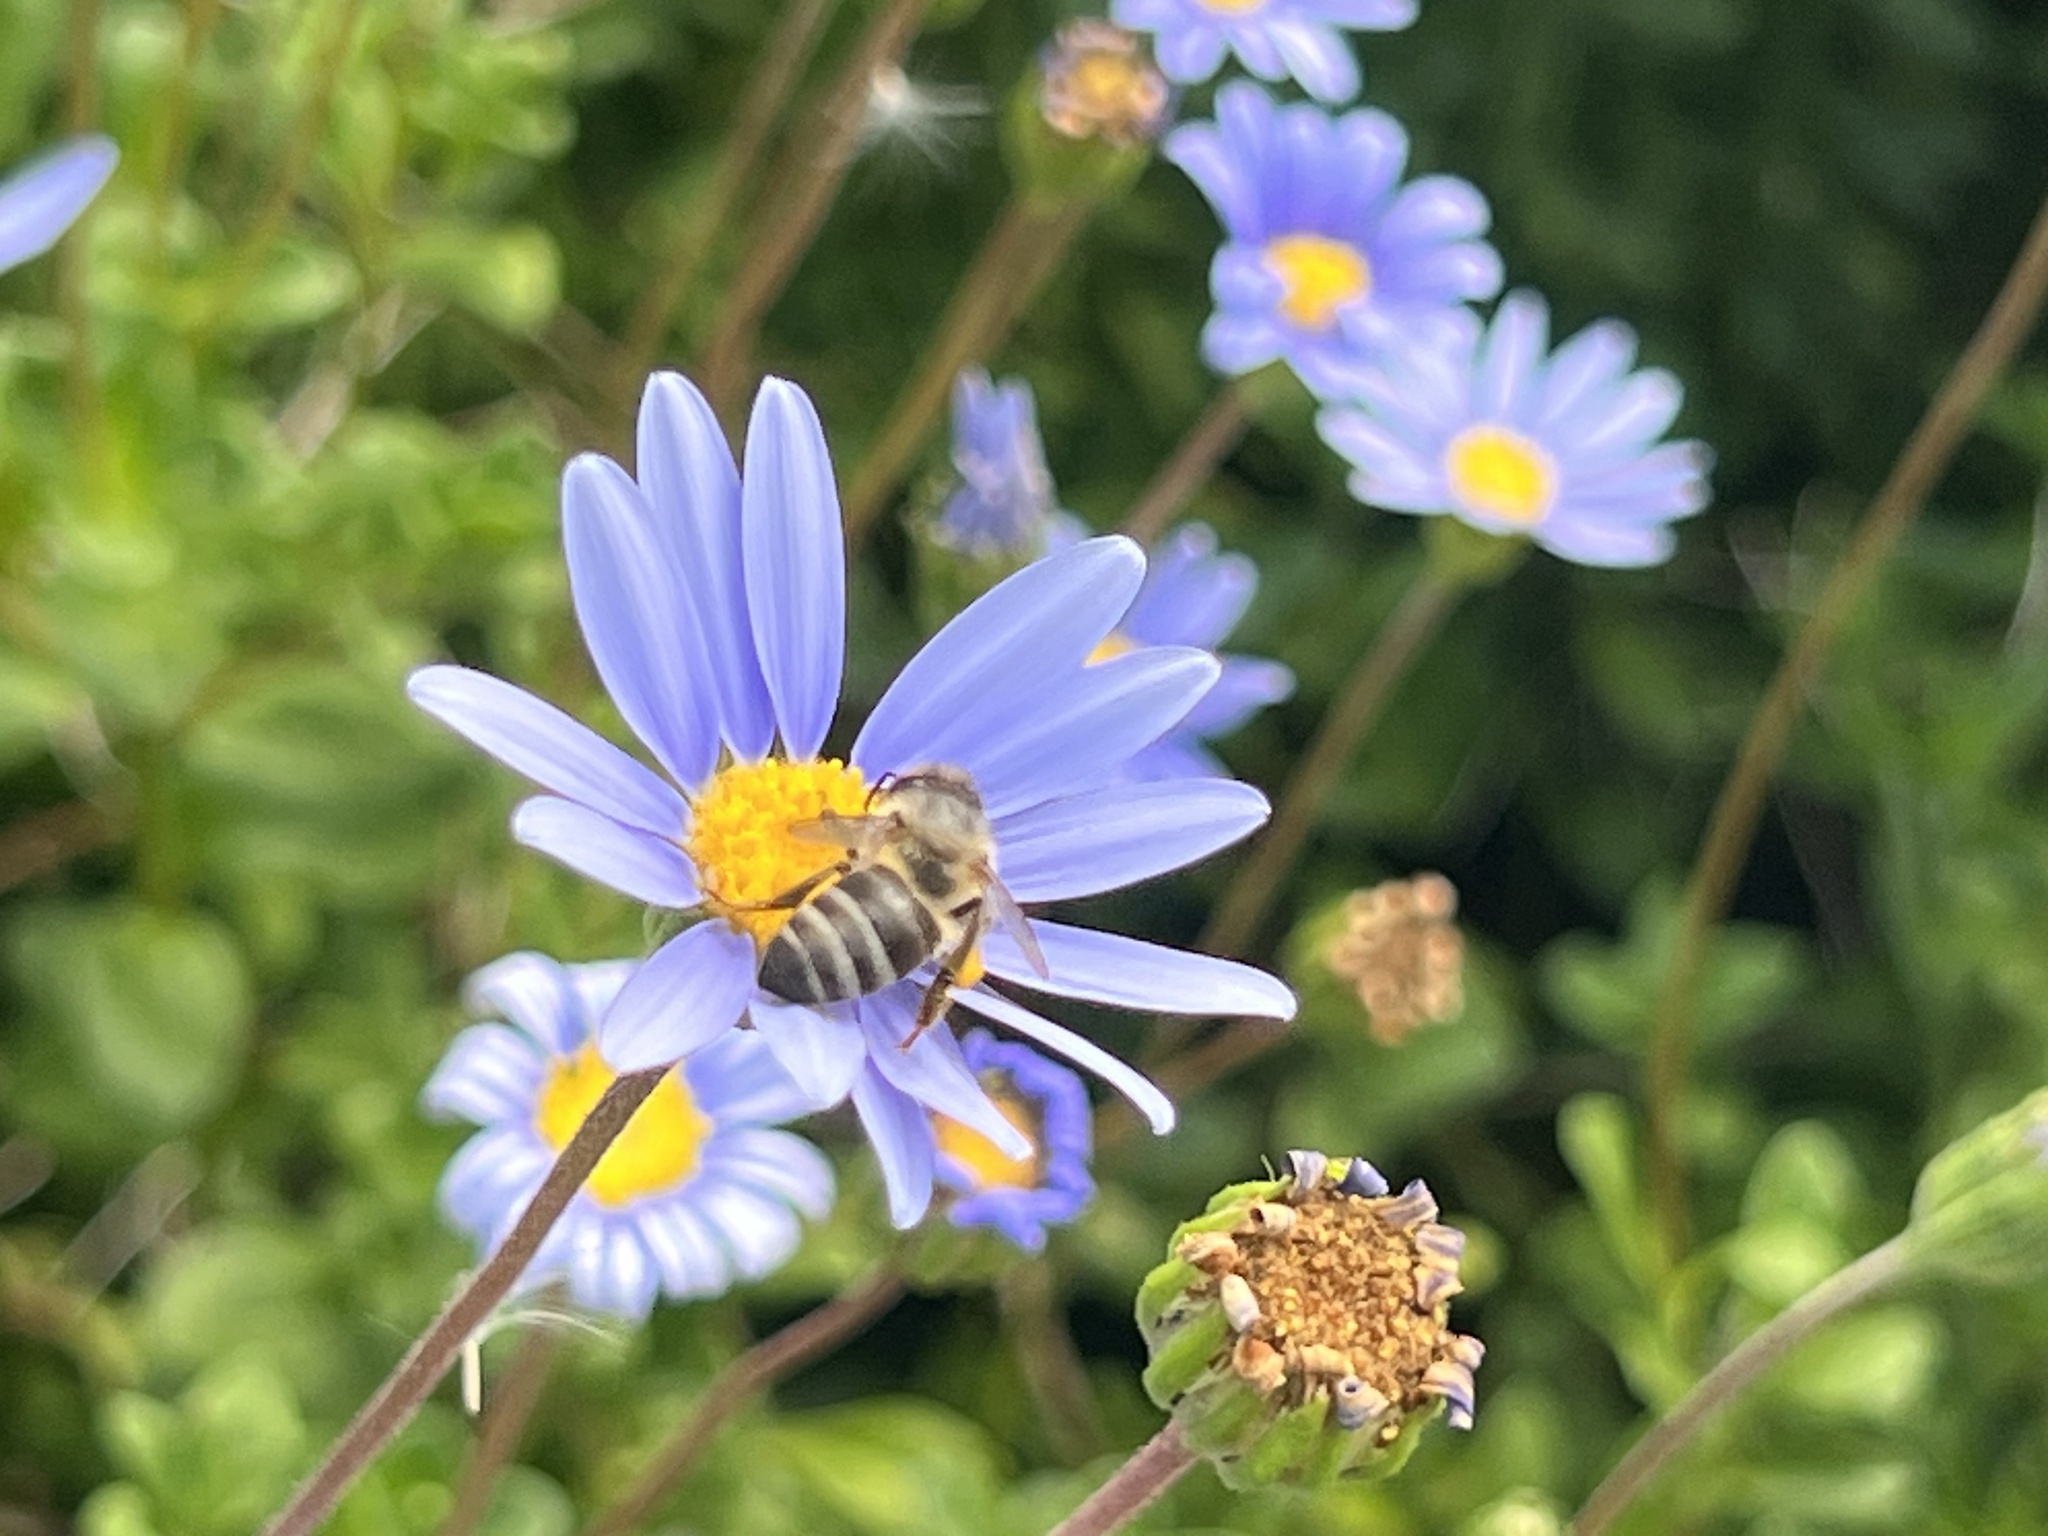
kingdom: Animalia
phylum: Arthropoda
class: Insecta
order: Hymenoptera
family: Apidae
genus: Apis
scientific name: Apis mellifera
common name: Honey bee
